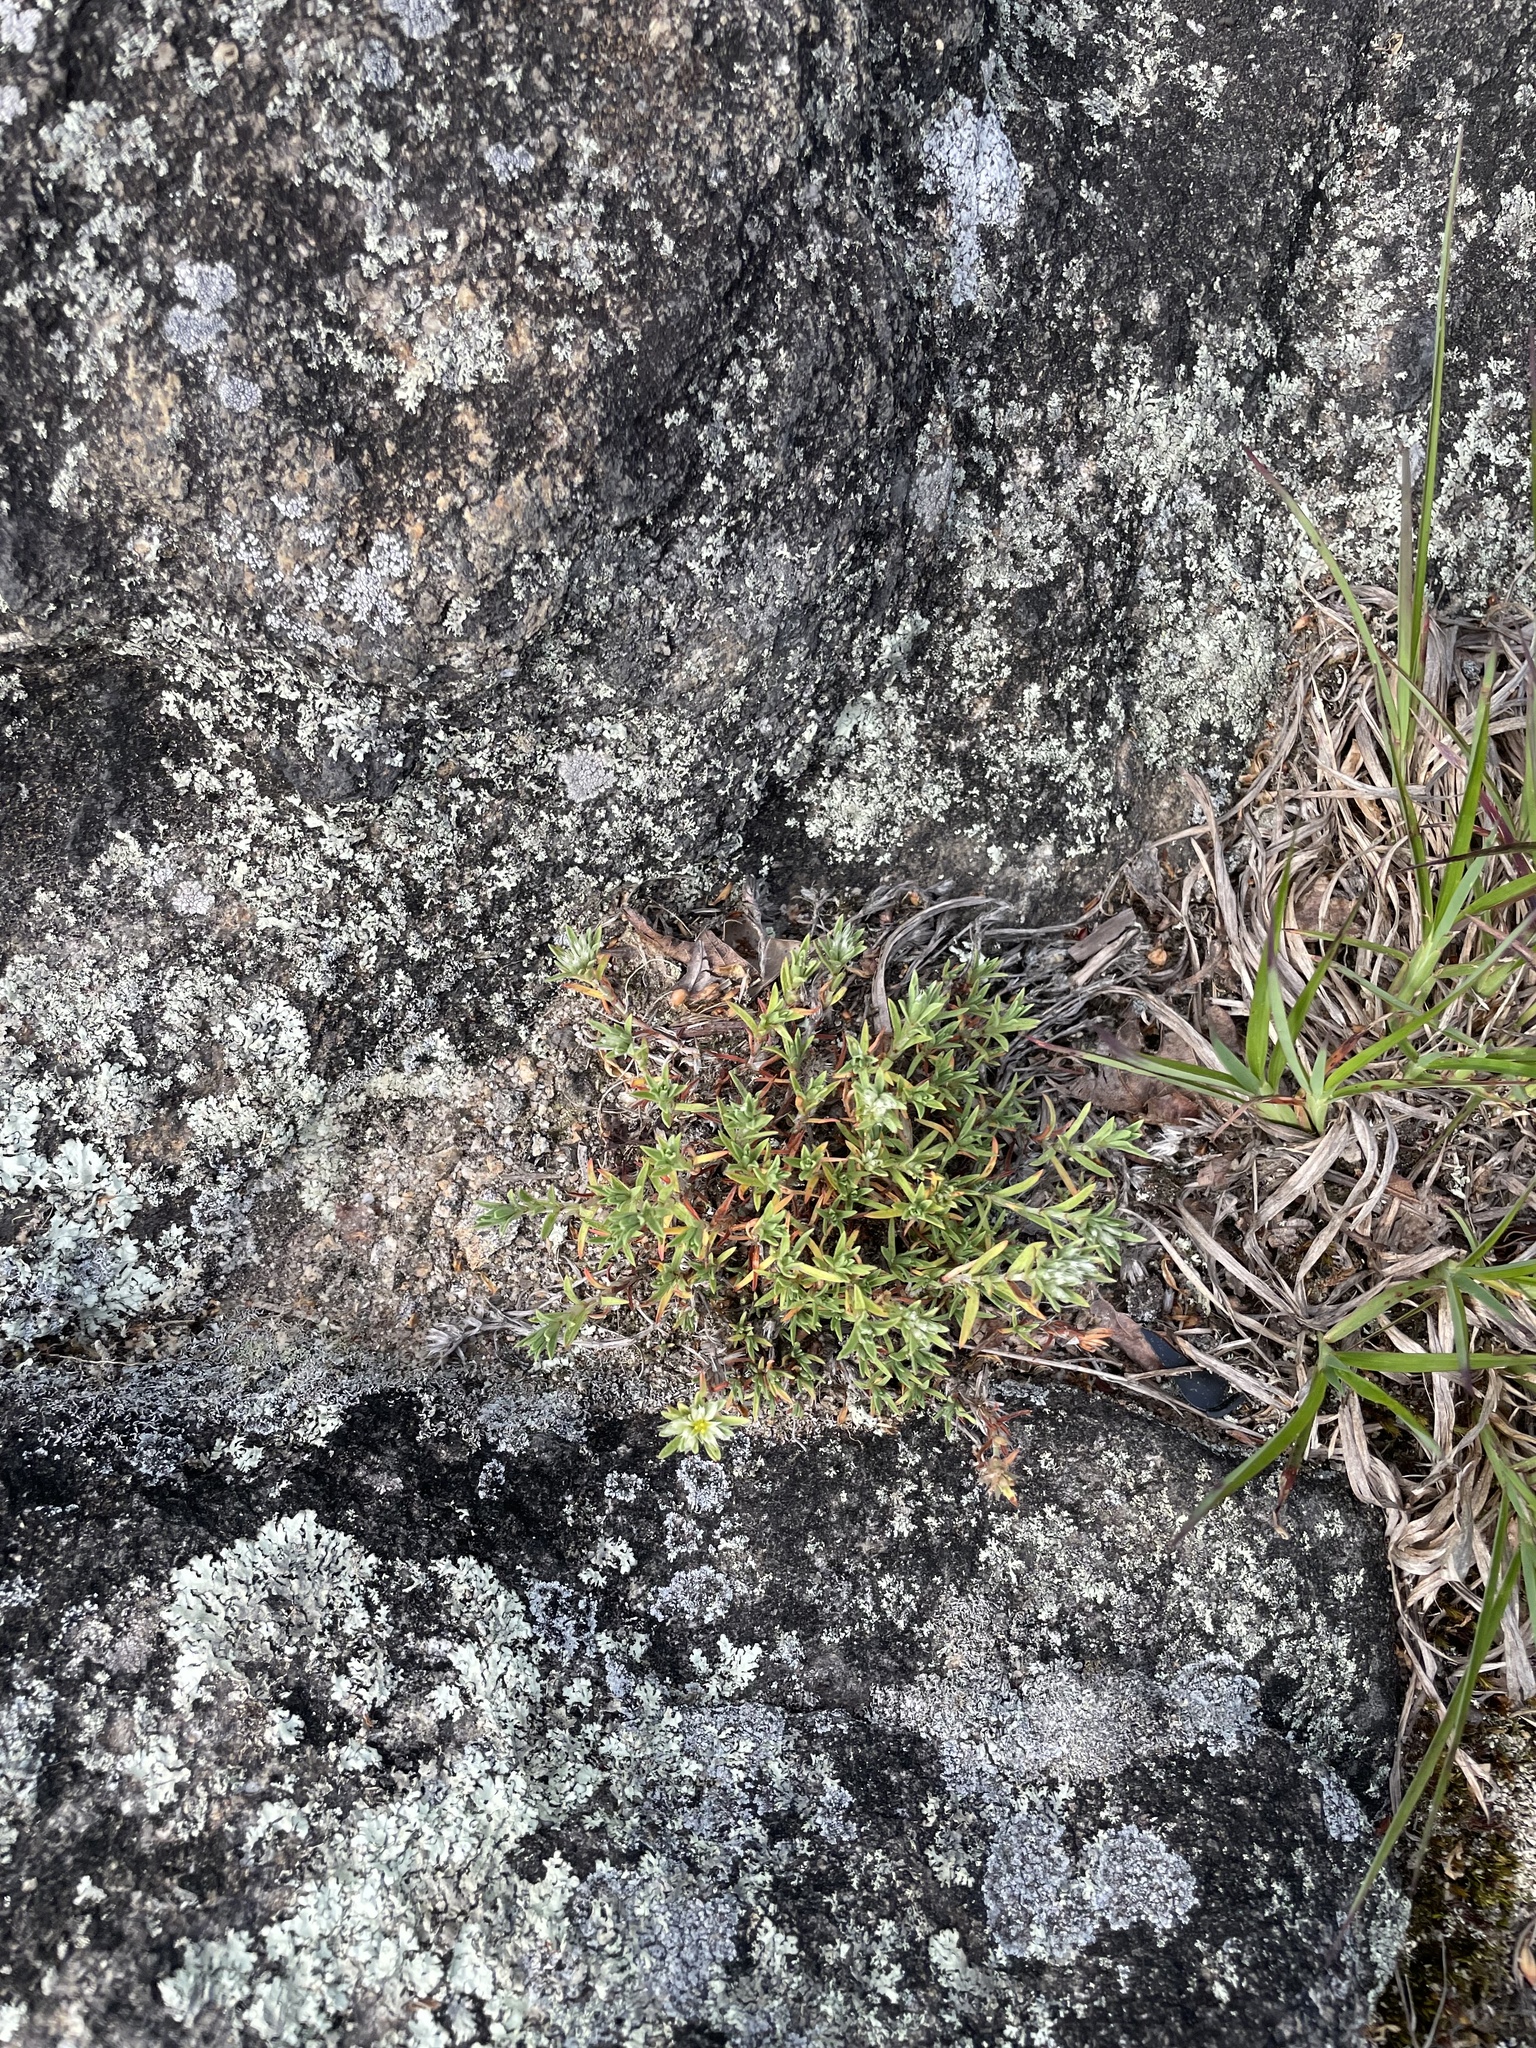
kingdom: Plantae
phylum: Tracheophyta
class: Magnoliopsida
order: Caryophyllales
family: Caryophyllaceae
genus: Paronychia
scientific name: Paronychia argyrocoma
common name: Silverling
